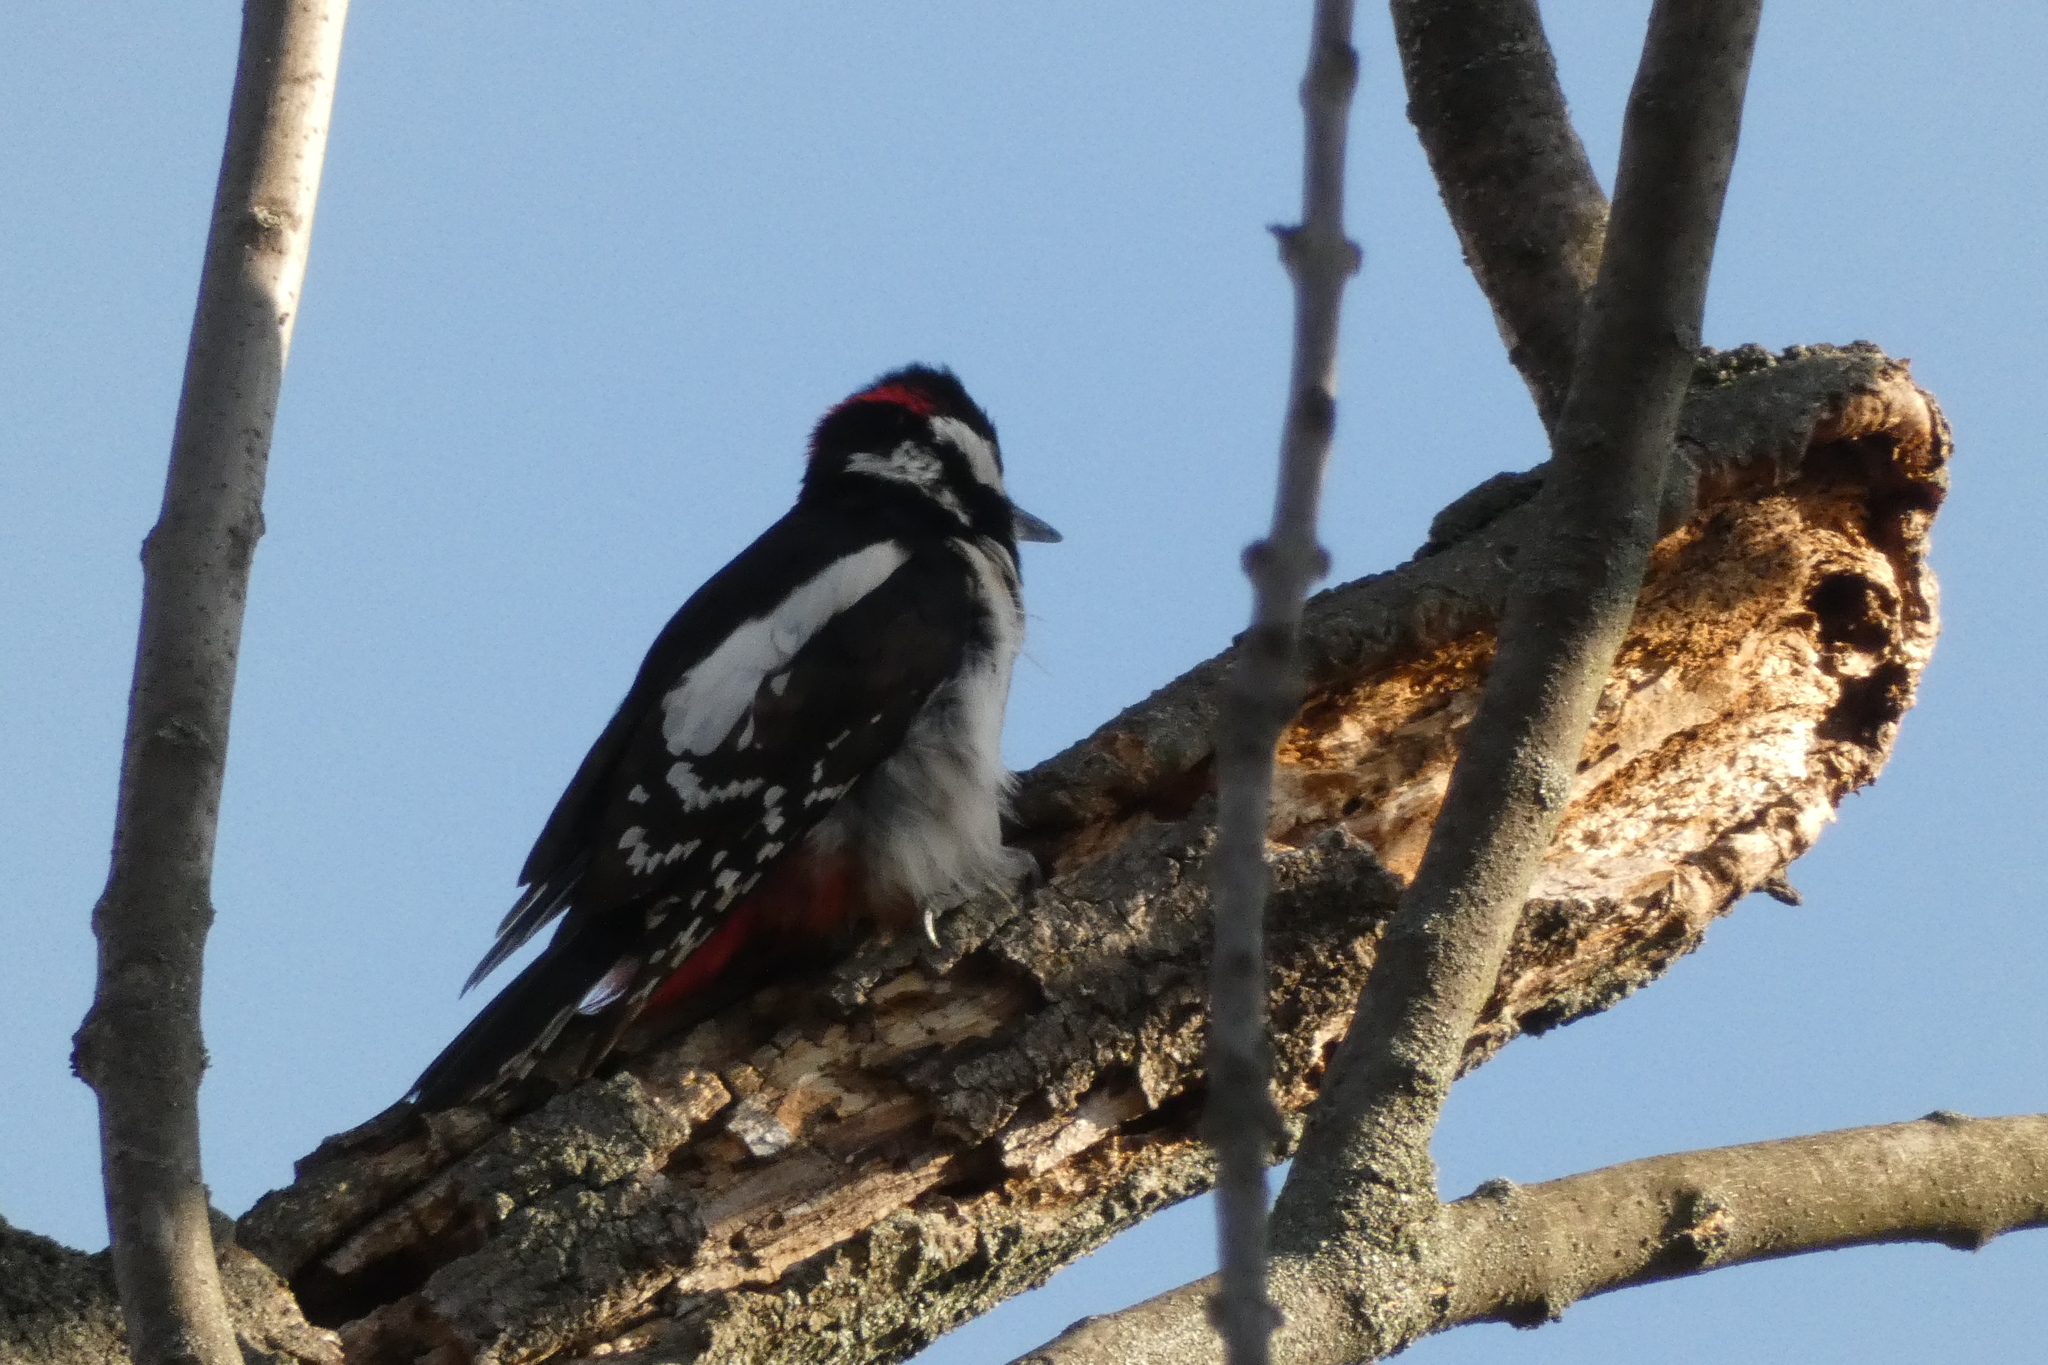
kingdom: Animalia
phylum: Chordata
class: Aves
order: Piciformes
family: Picidae
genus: Dendrocopos
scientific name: Dendrocopos major
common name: Great spotted woodpecker
